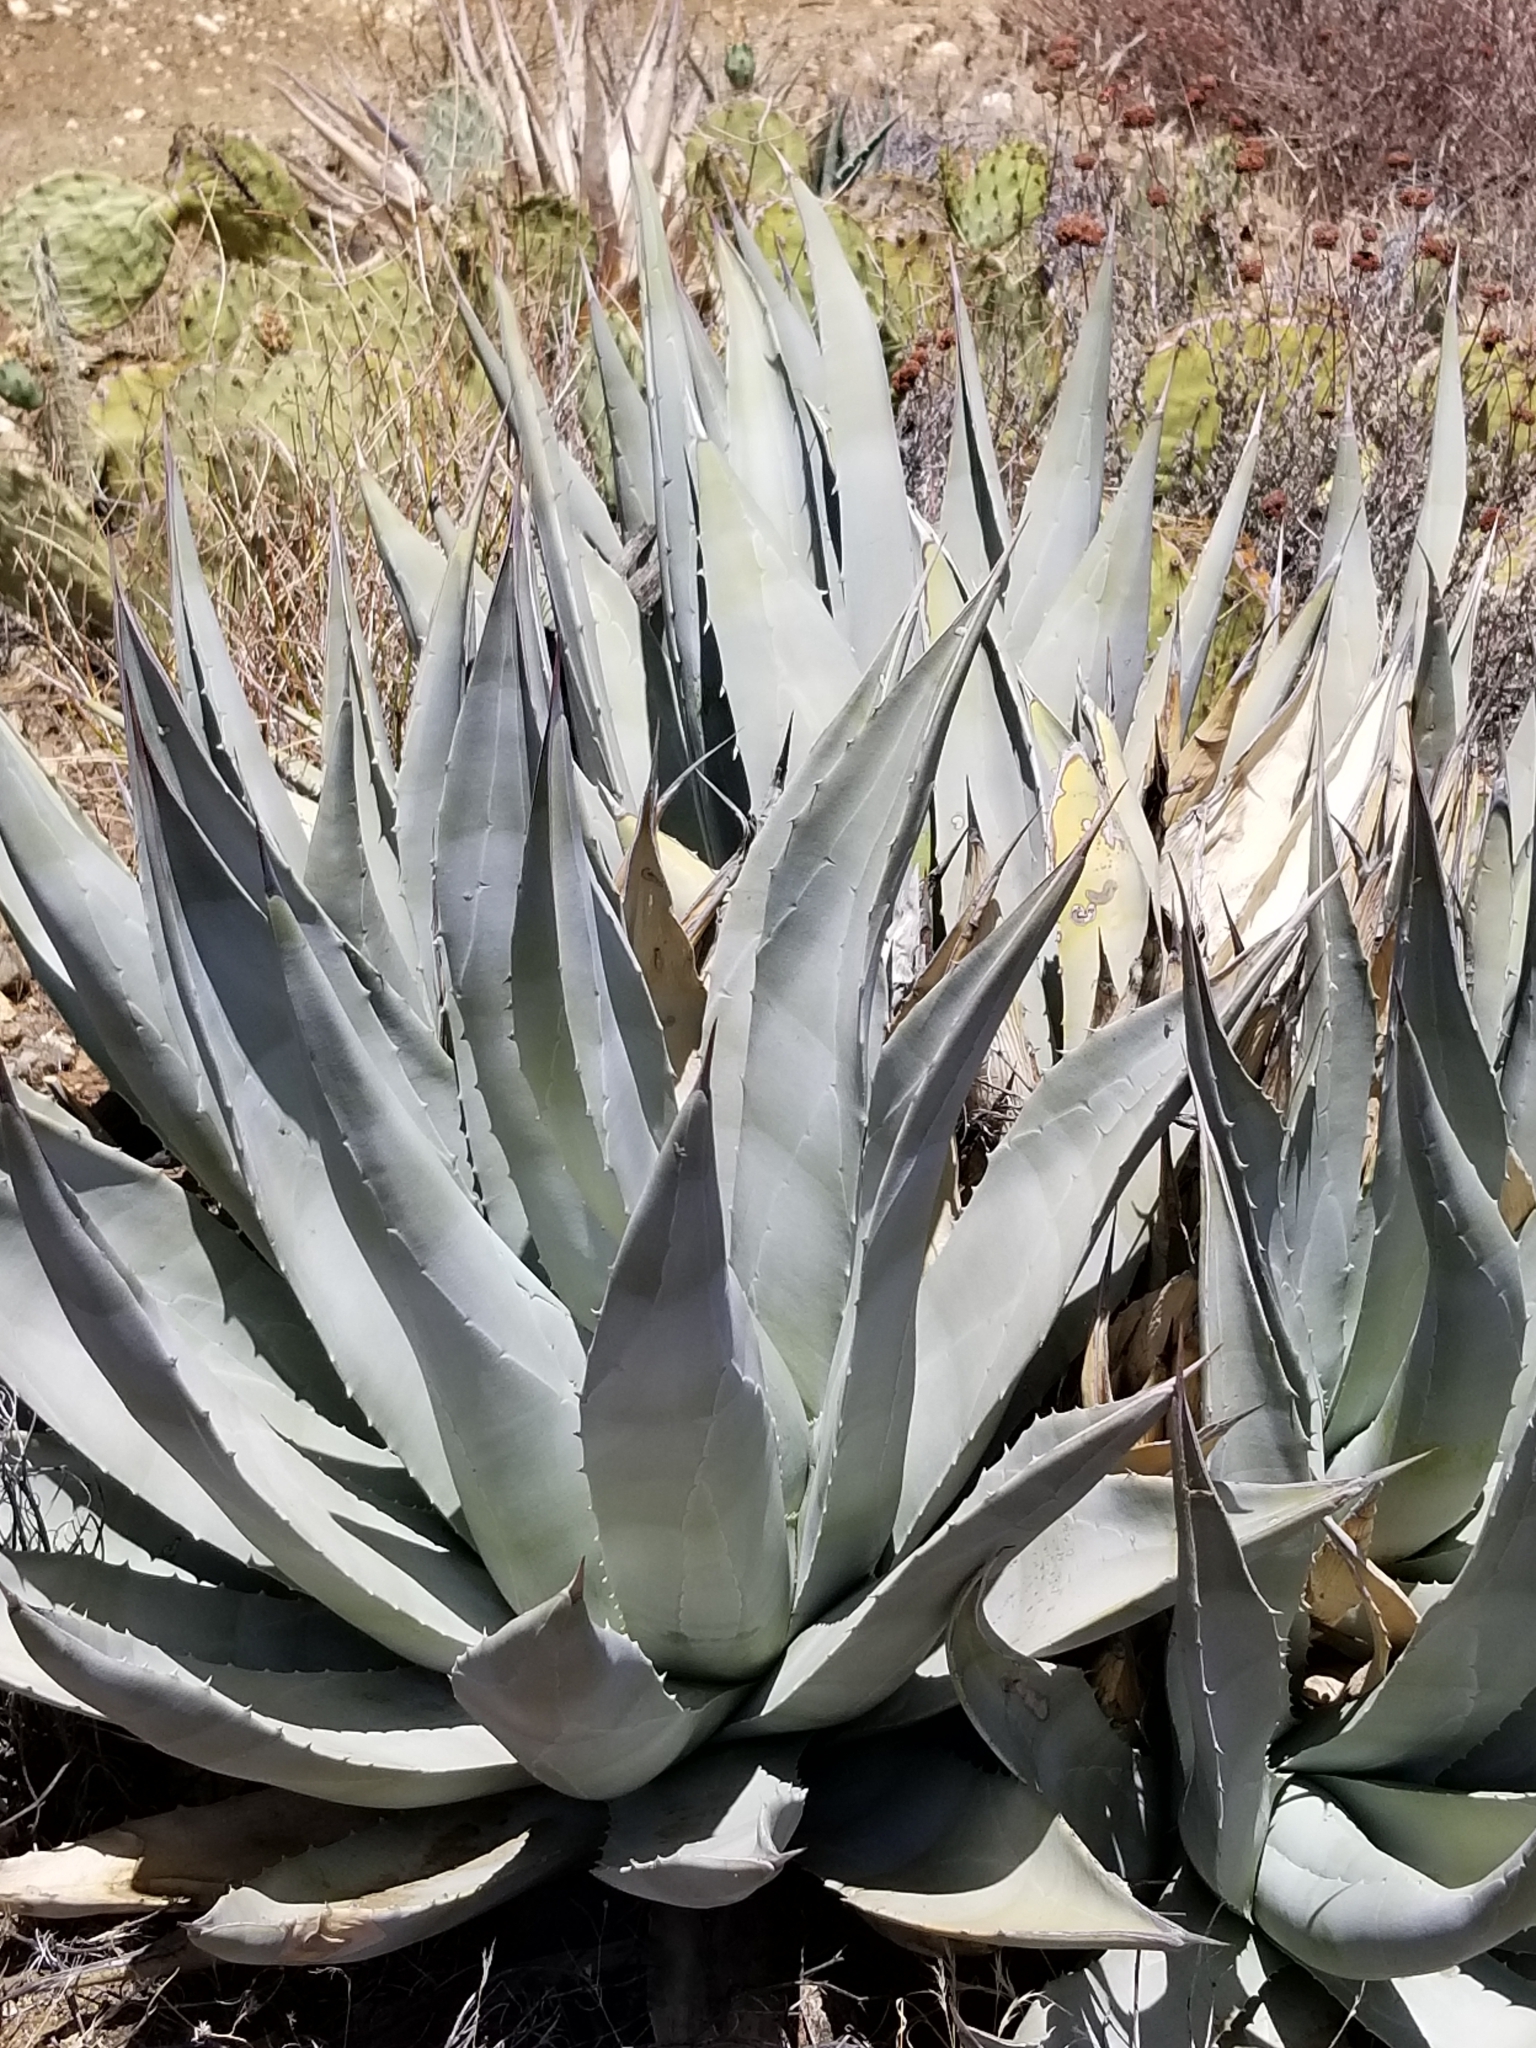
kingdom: Plantae
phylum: Tracheophyta
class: Liliopsida
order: Asparagales
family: Asparagaceae
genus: Agave
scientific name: Agave deserti
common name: Desert agave
